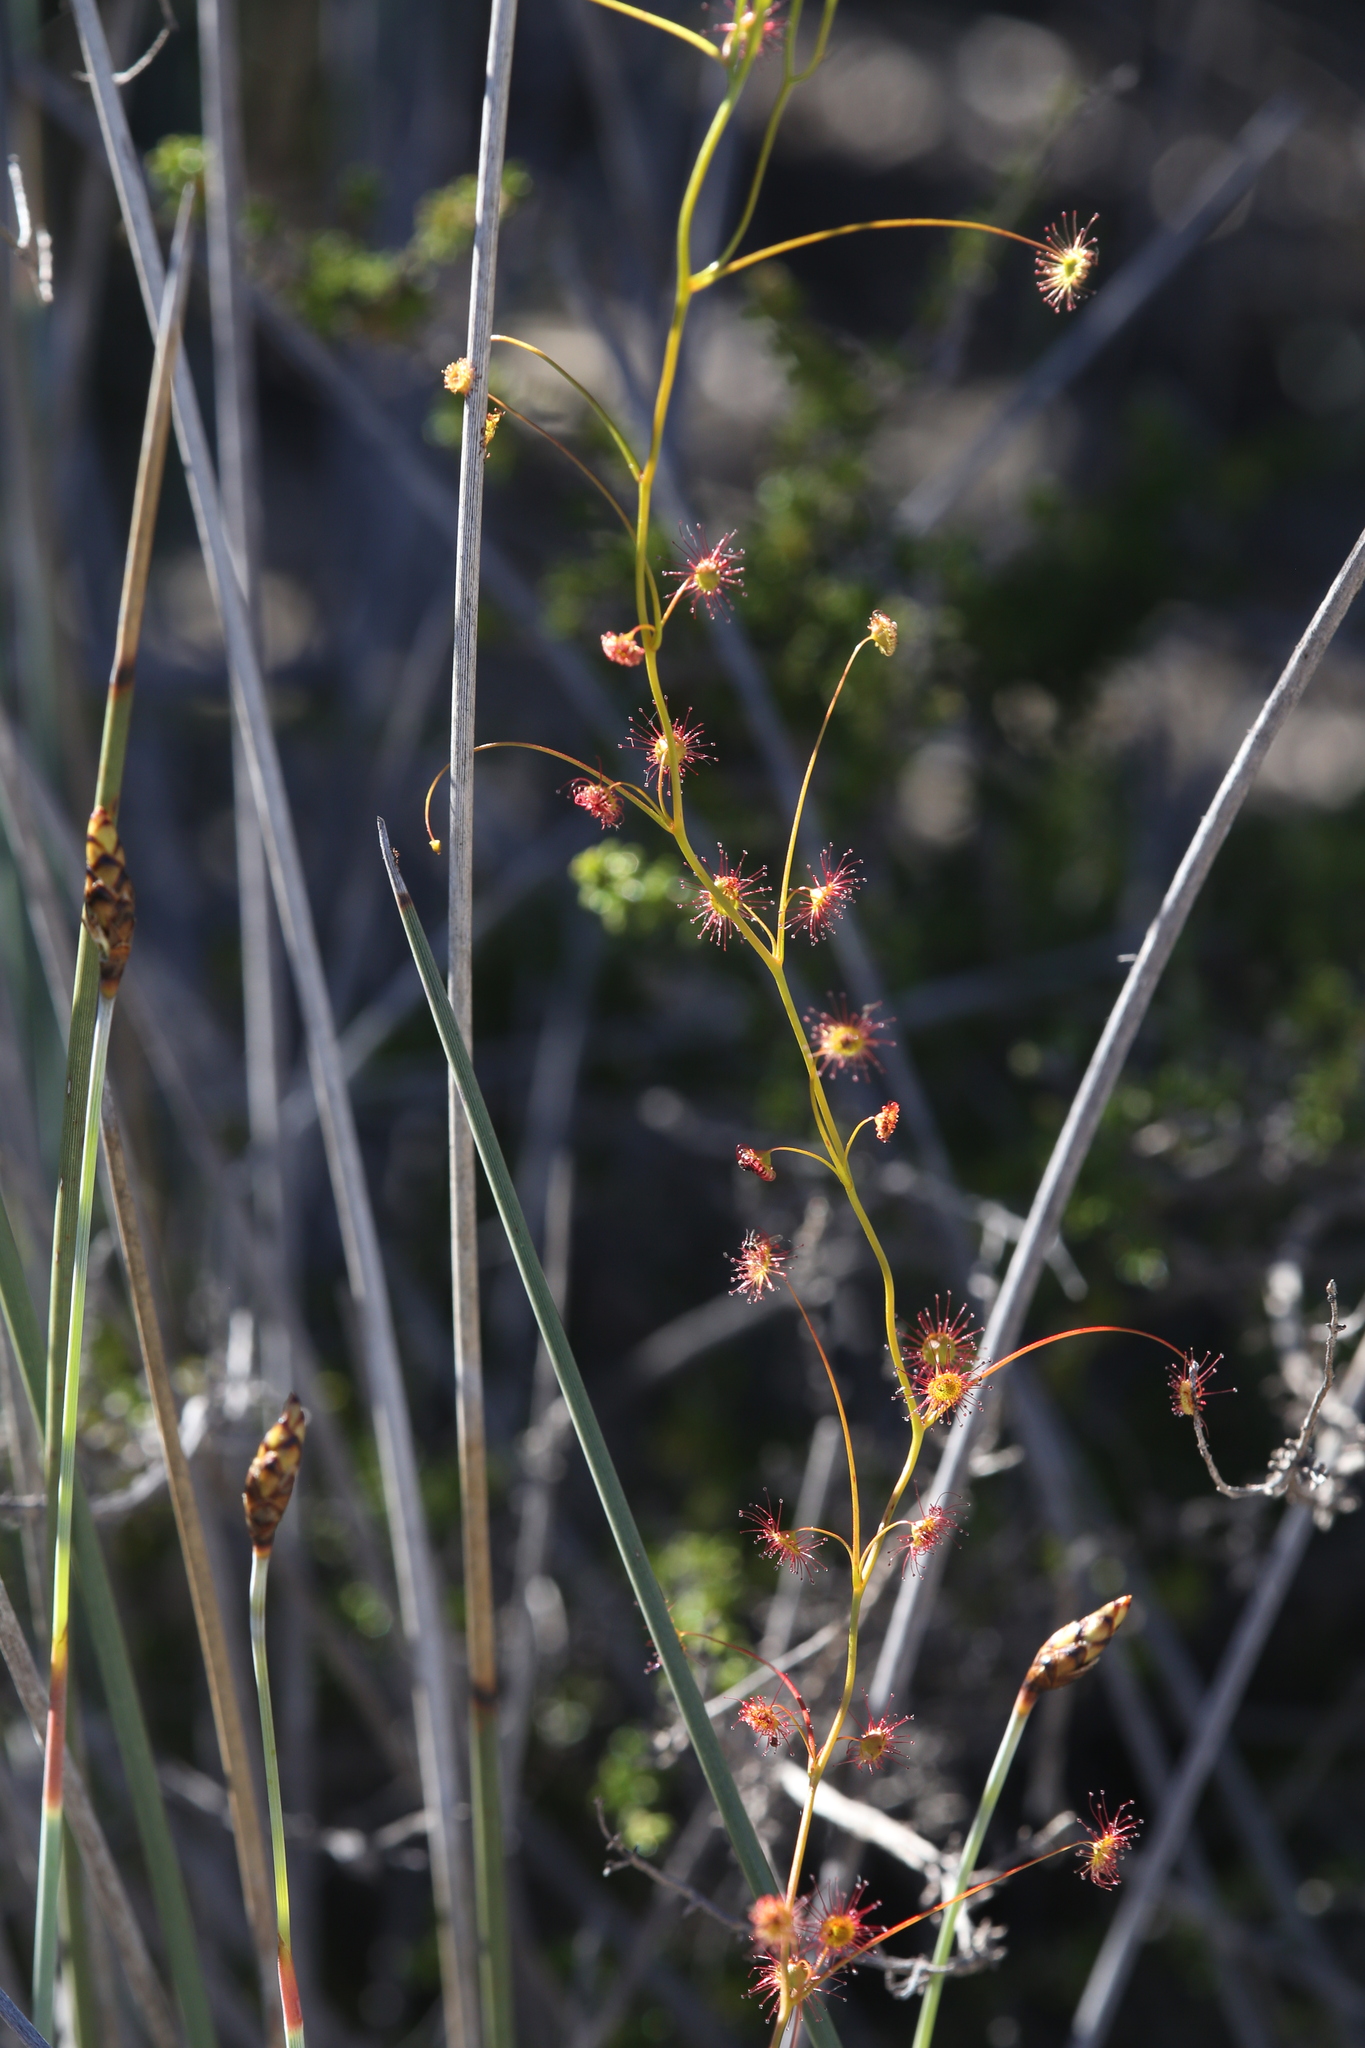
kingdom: Plantae
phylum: Tracheophyta
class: Magnoliopsida
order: Caryophyllales
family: Droseraceae
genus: Drosera
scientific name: Drosera menziesii
